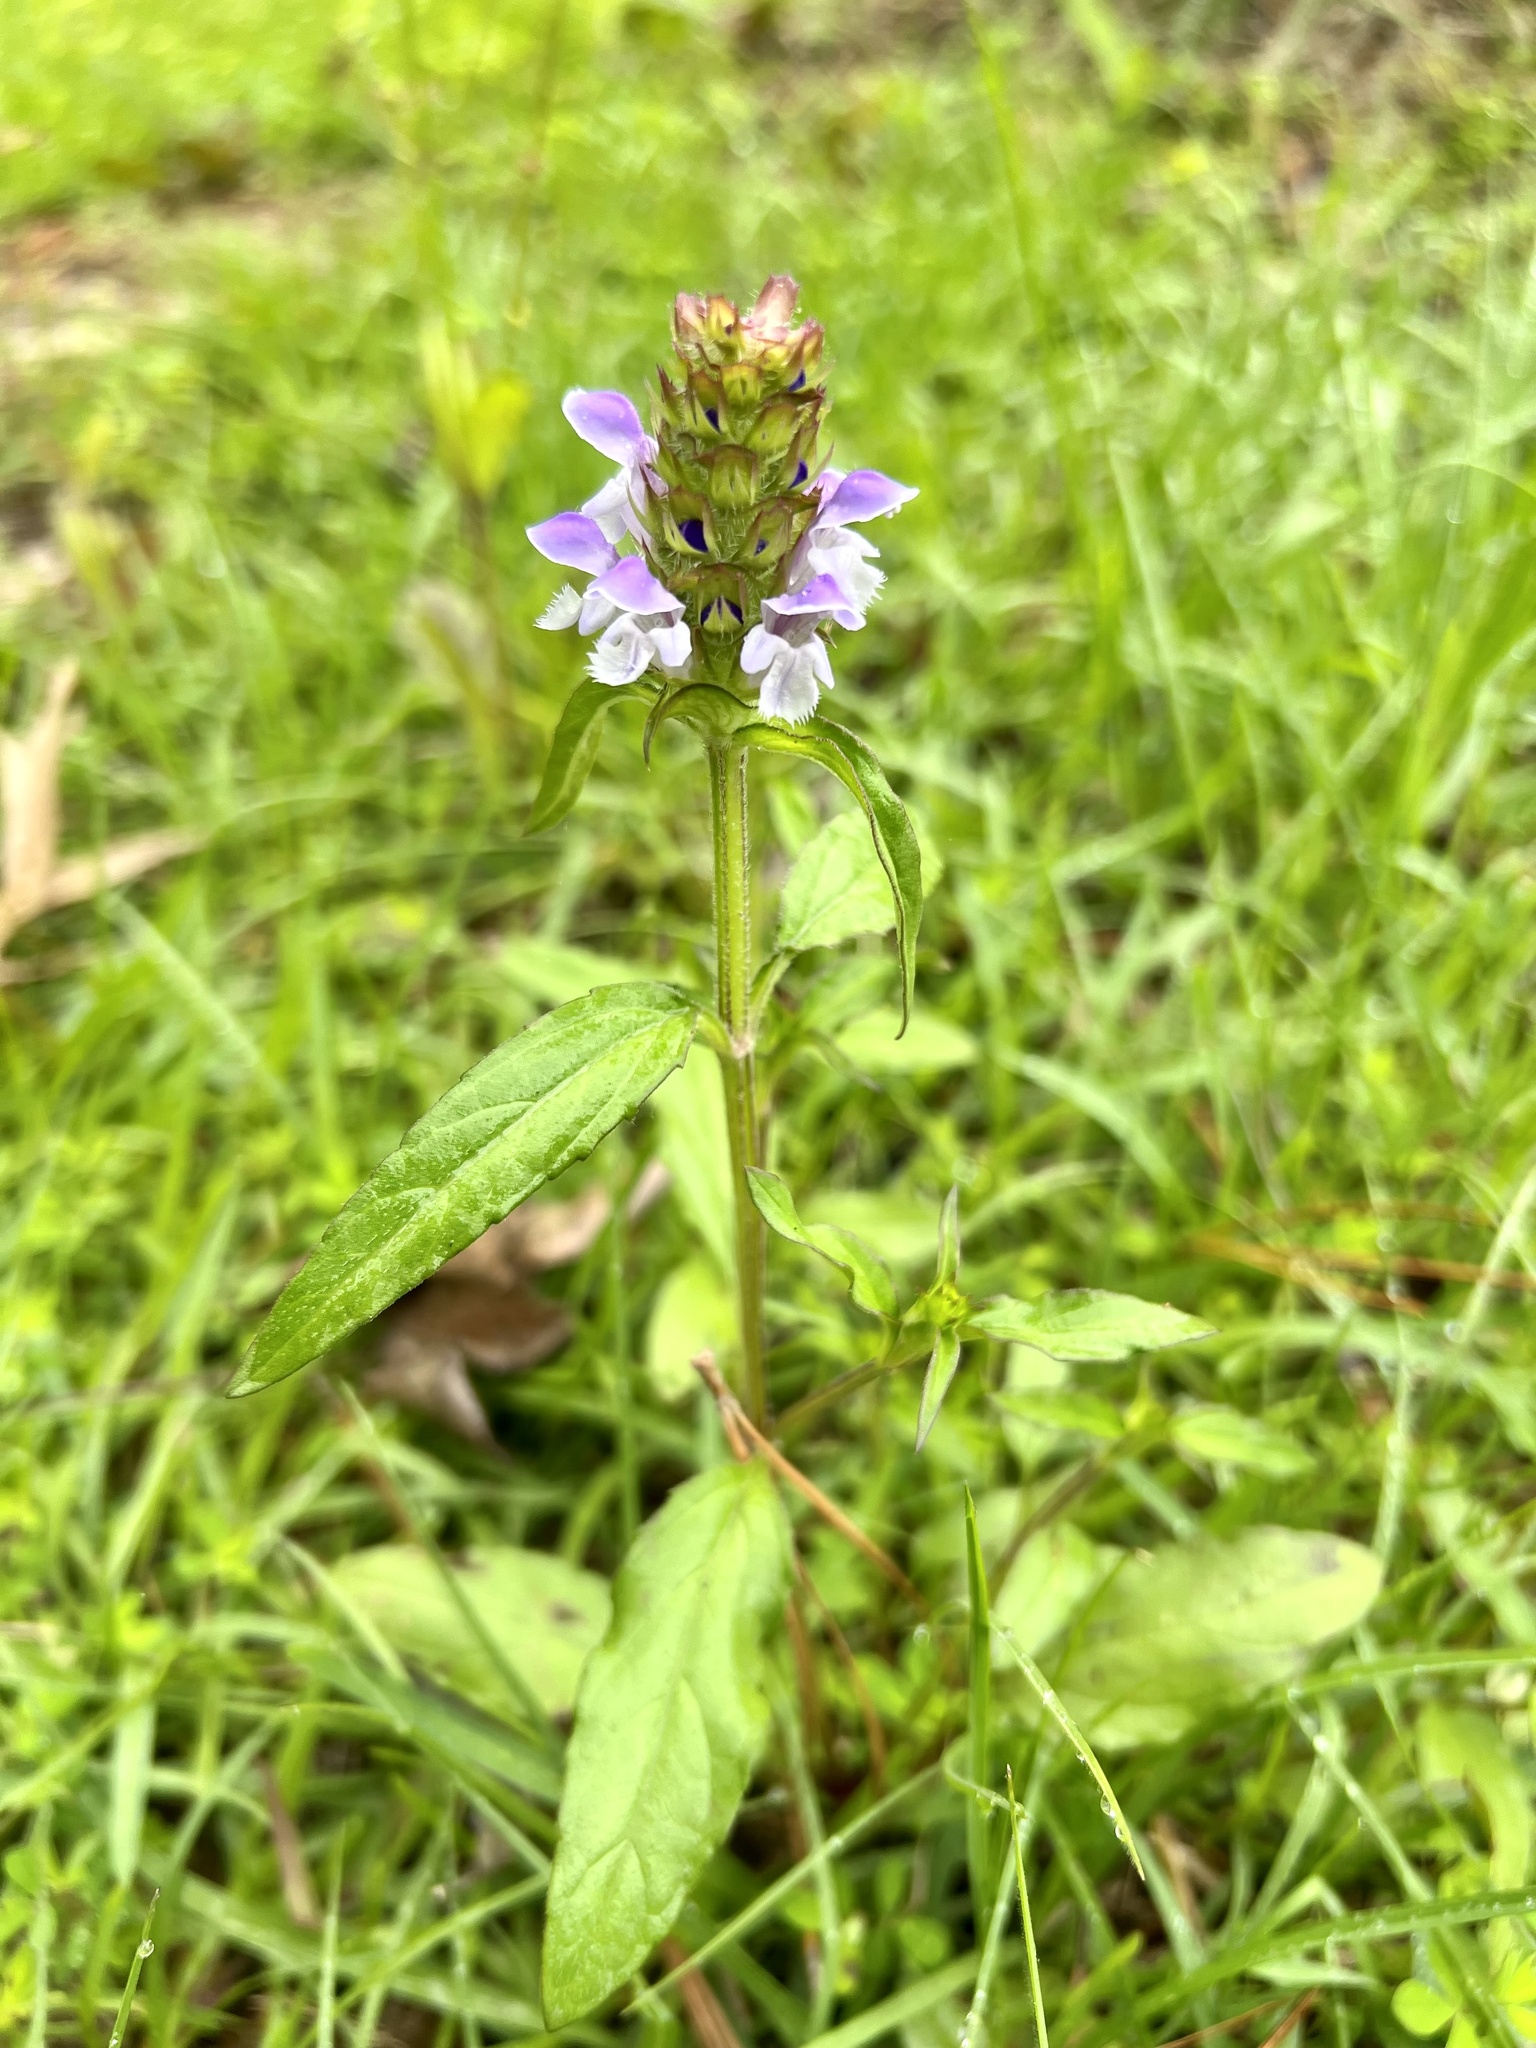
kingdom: Plantae
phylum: Tracheophyta
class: Magnoliopsida
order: Lamiales
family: Lamiaceae
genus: Prunella
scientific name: Prunella vulgaris
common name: Heal-all
